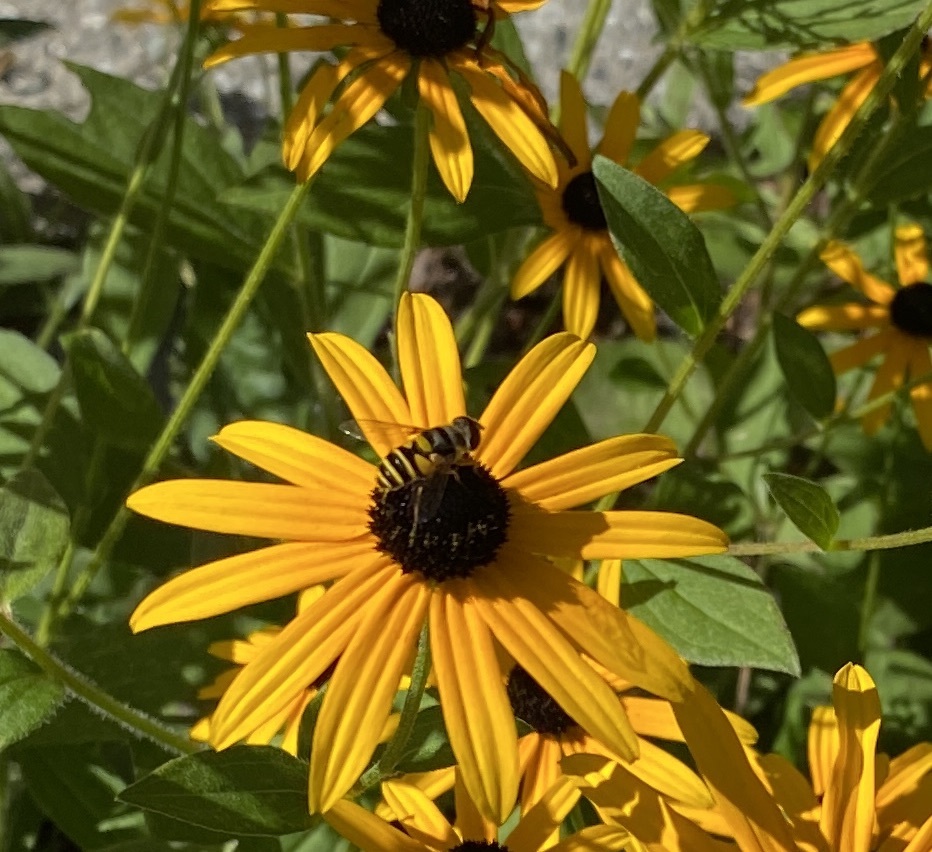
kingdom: Animalia
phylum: Arthropoda
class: Insecta
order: Diptera
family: Syrphidae
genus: Eristalis
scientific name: Eristalis transversa
